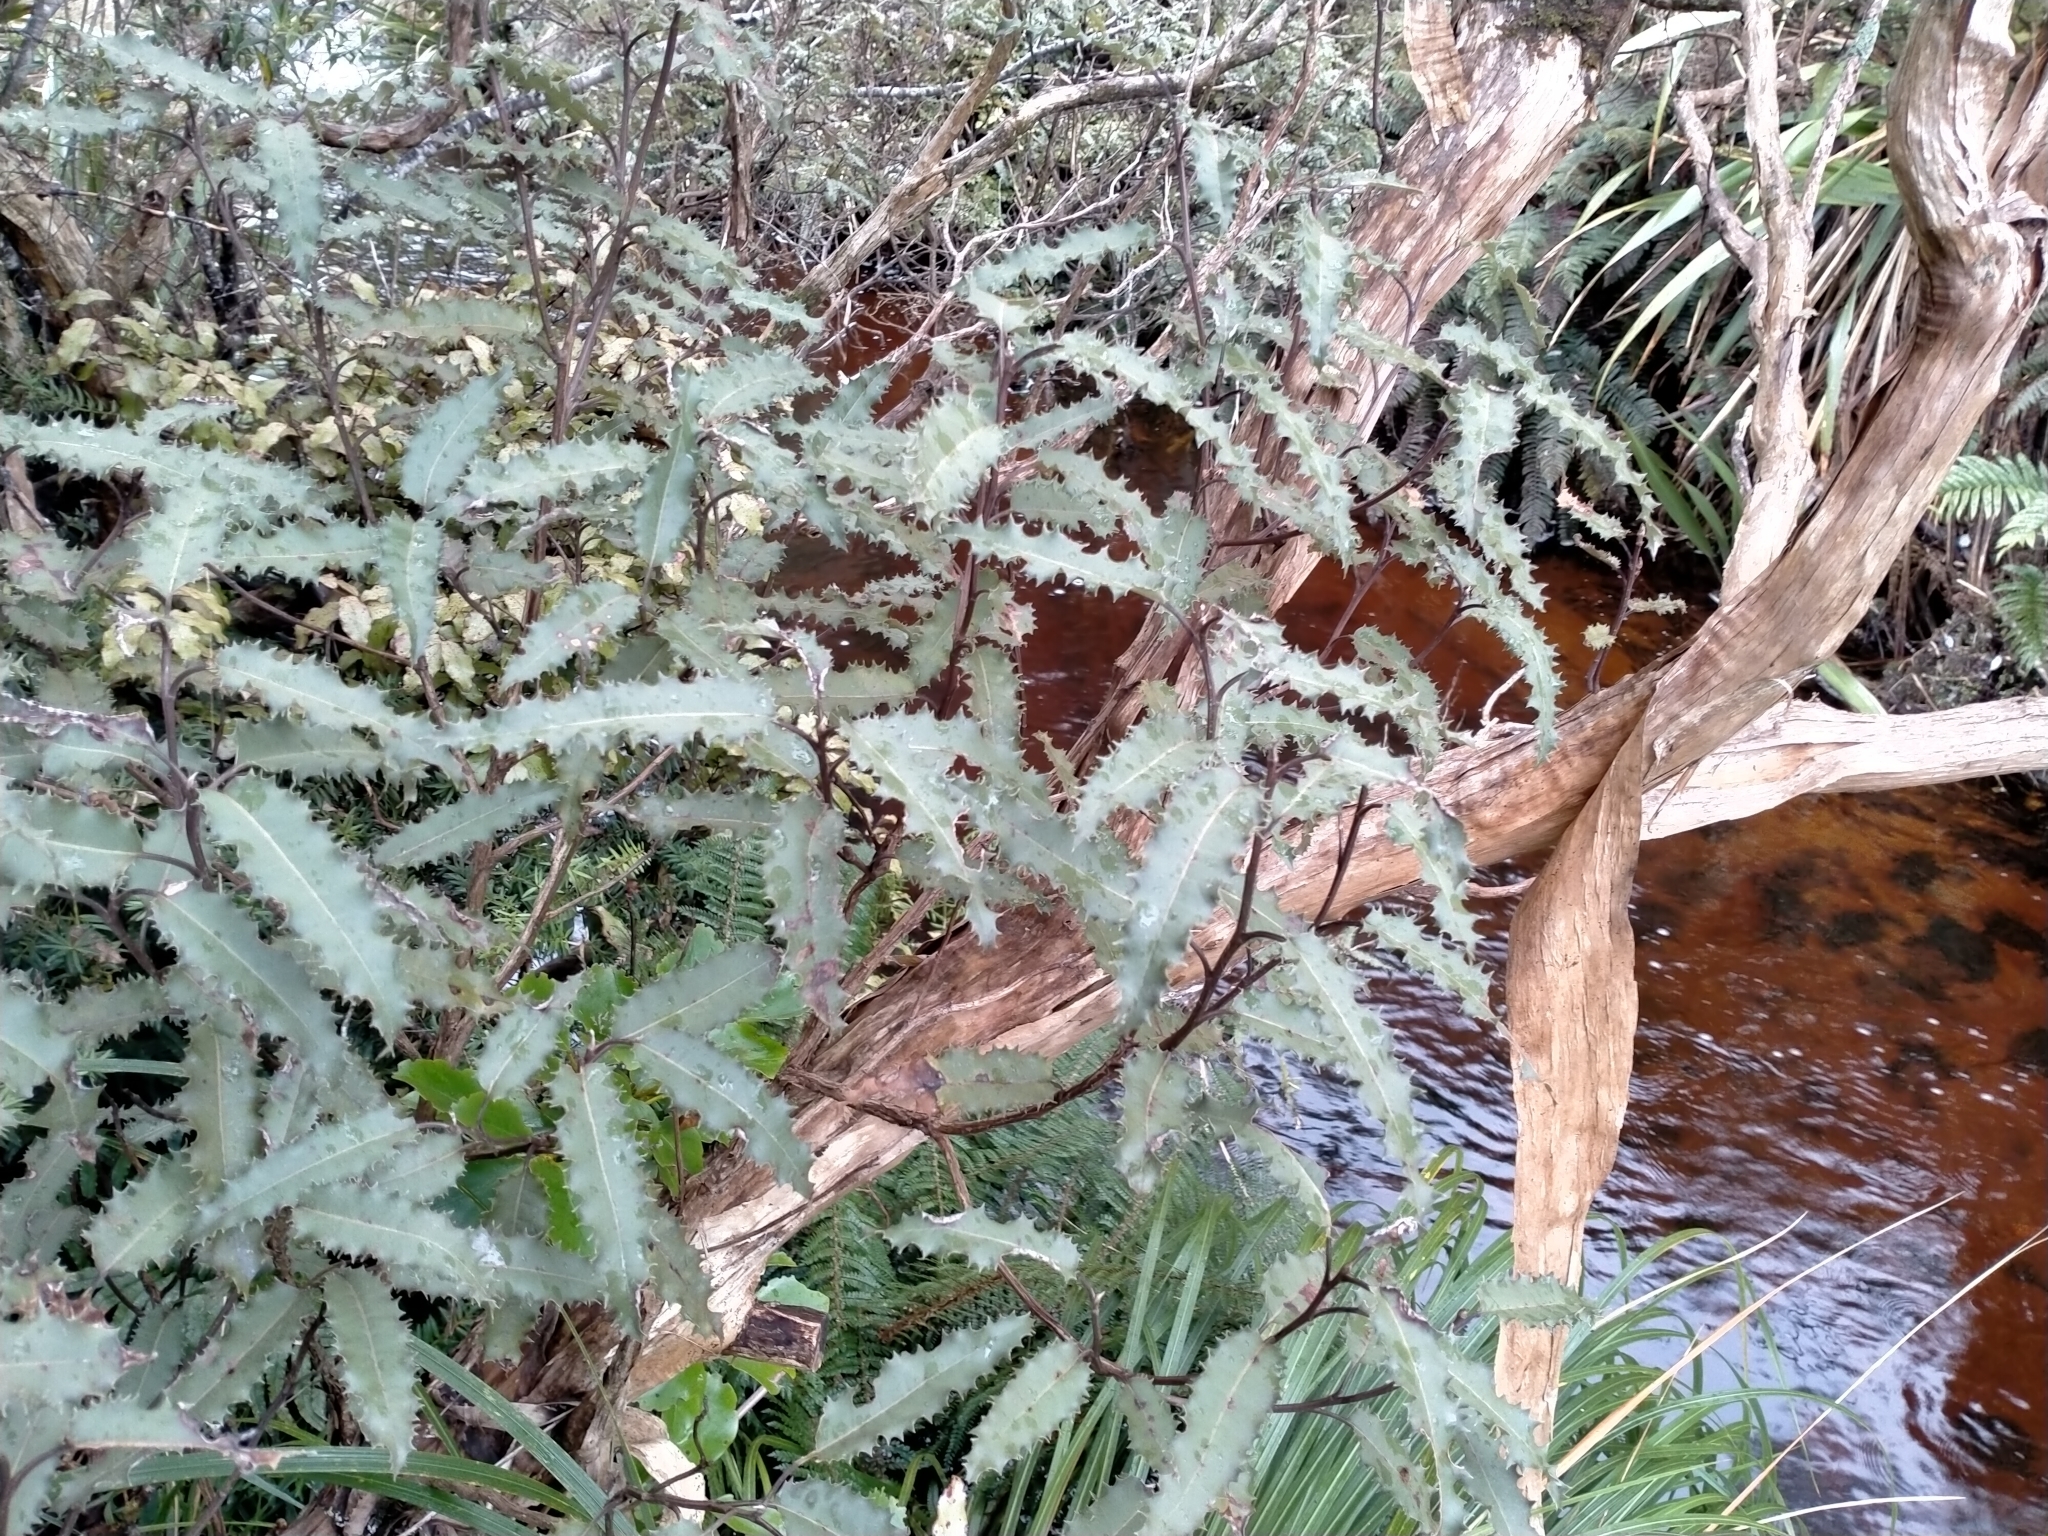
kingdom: Plantae
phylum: Tracheophyta
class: Magnoliopsida
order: Asterales
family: Asteraceae
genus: Olearia
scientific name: Olearia ilicifolia
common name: Maori-holly
